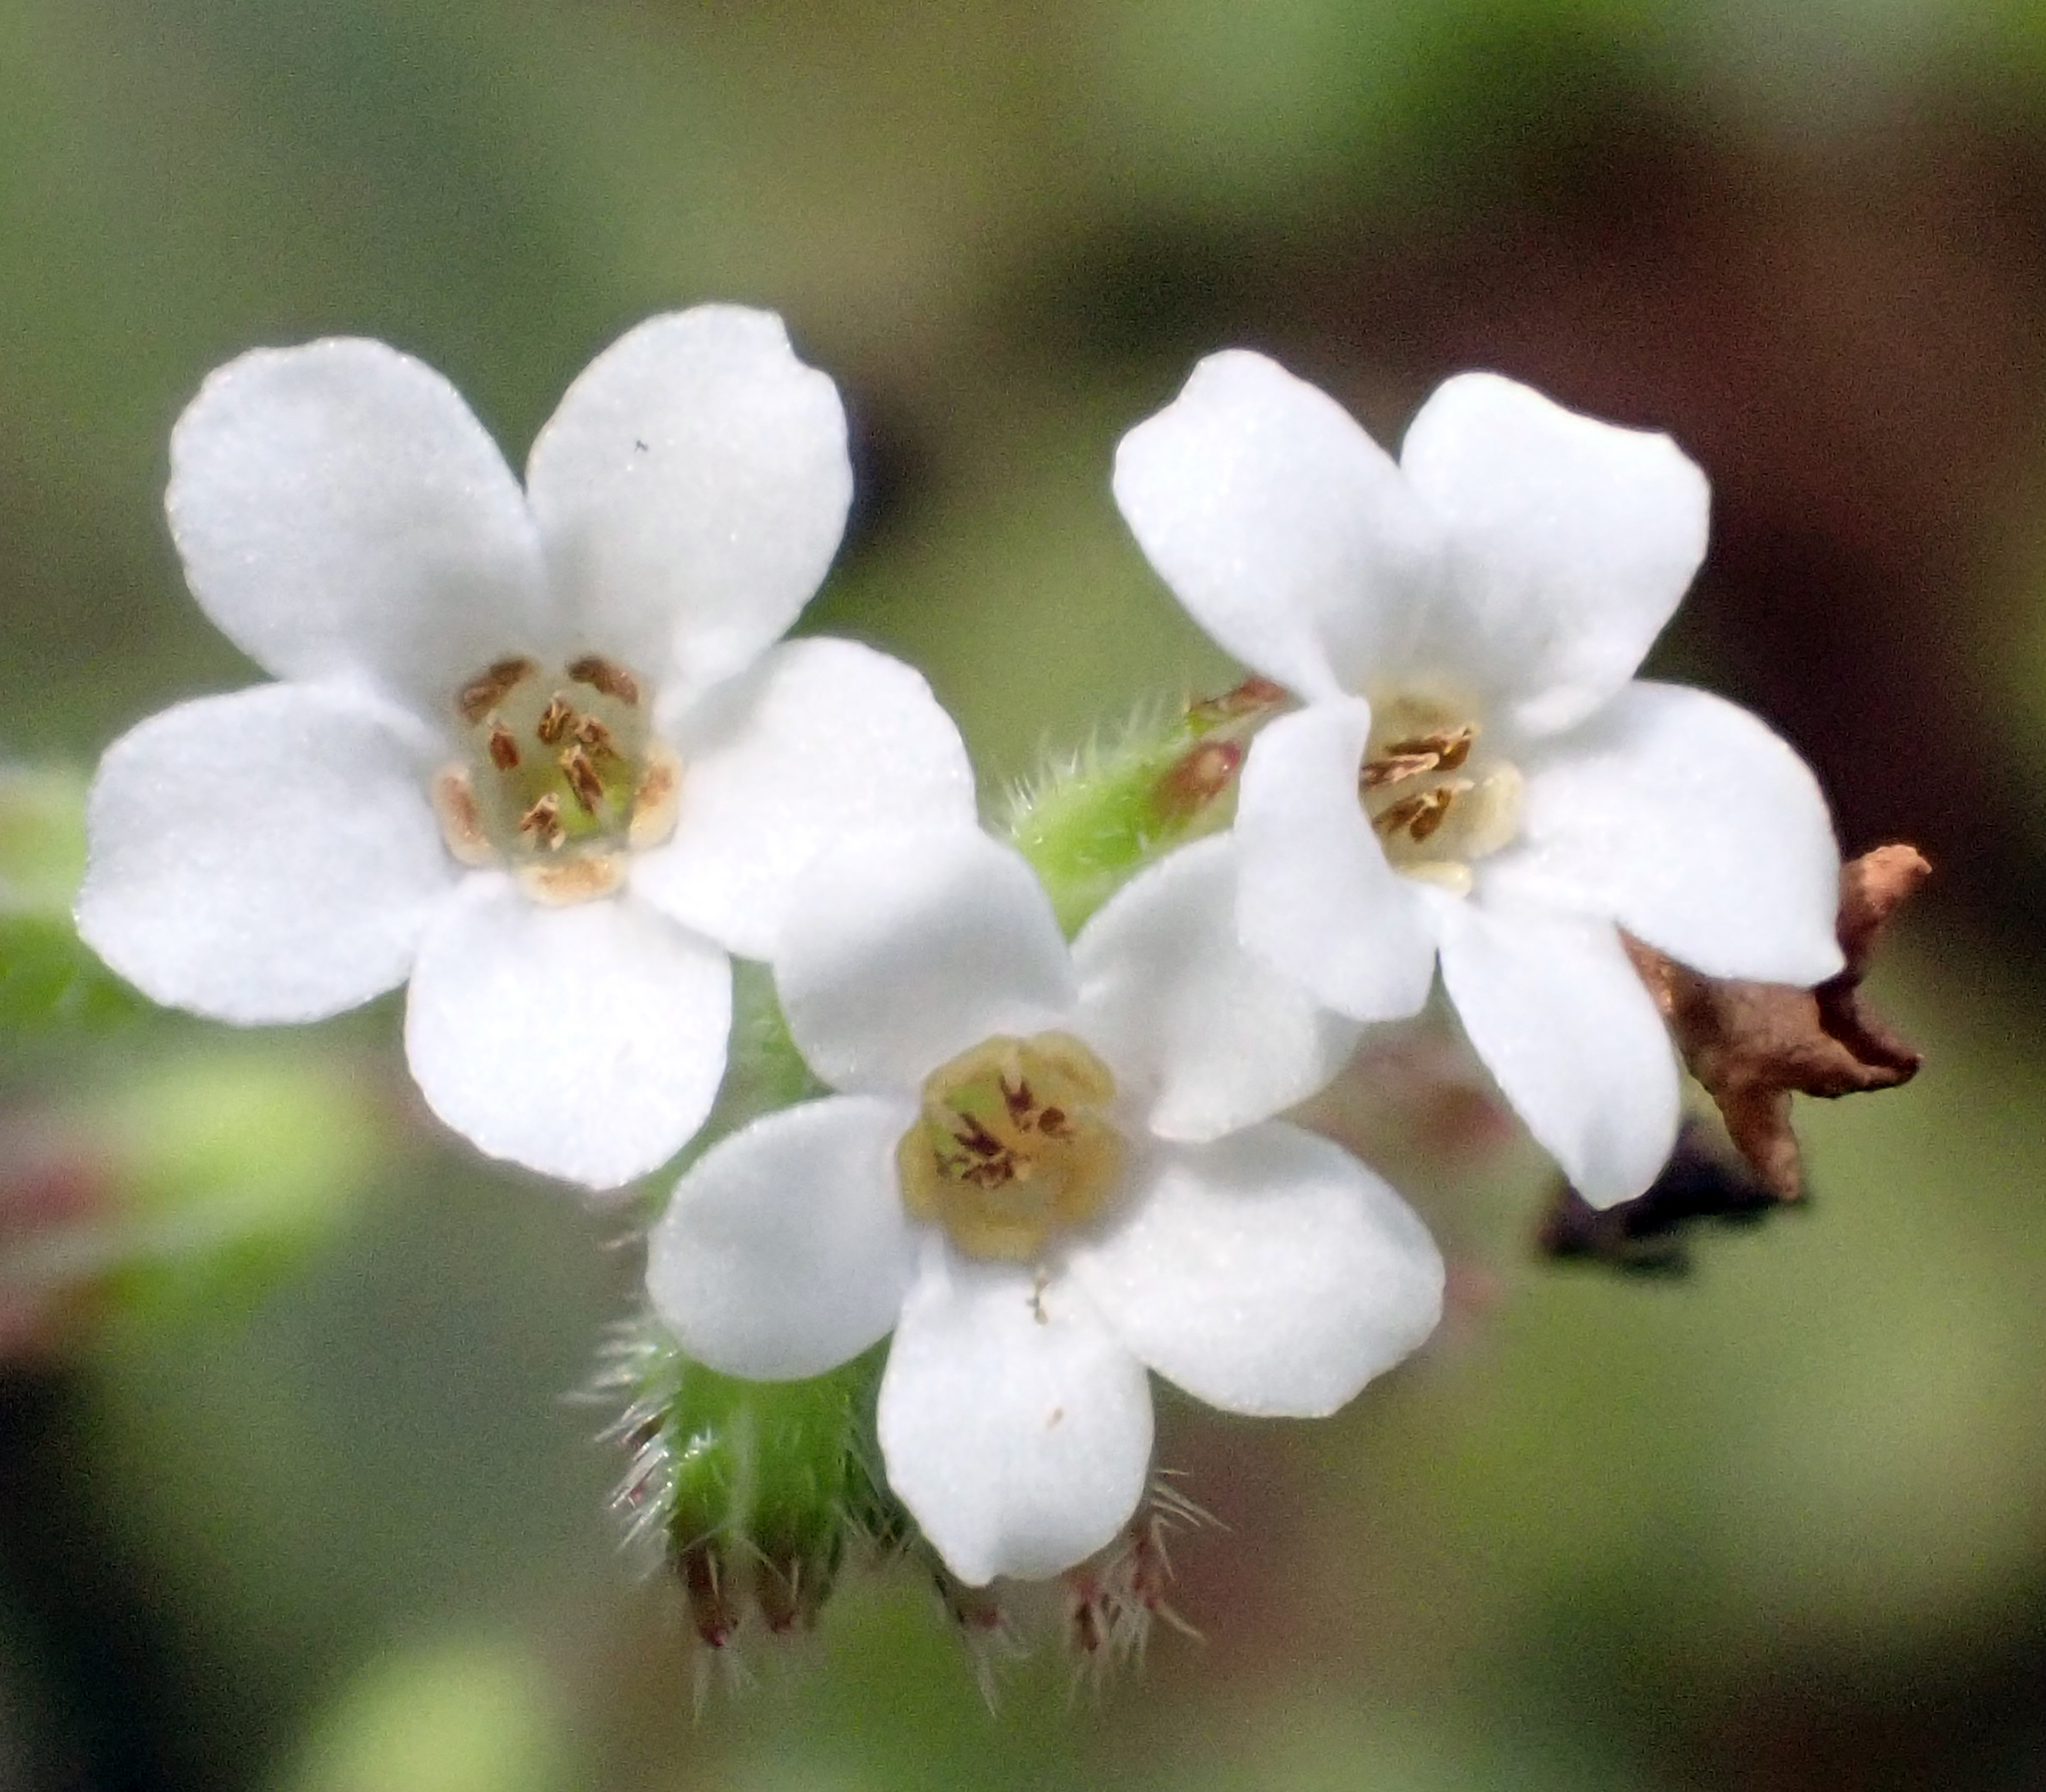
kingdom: Plantae
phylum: Tracheophyta
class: Magnoliopsida
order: Boraginales
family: Boraginaceae
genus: Myosotis
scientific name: Myosotis forsteri
